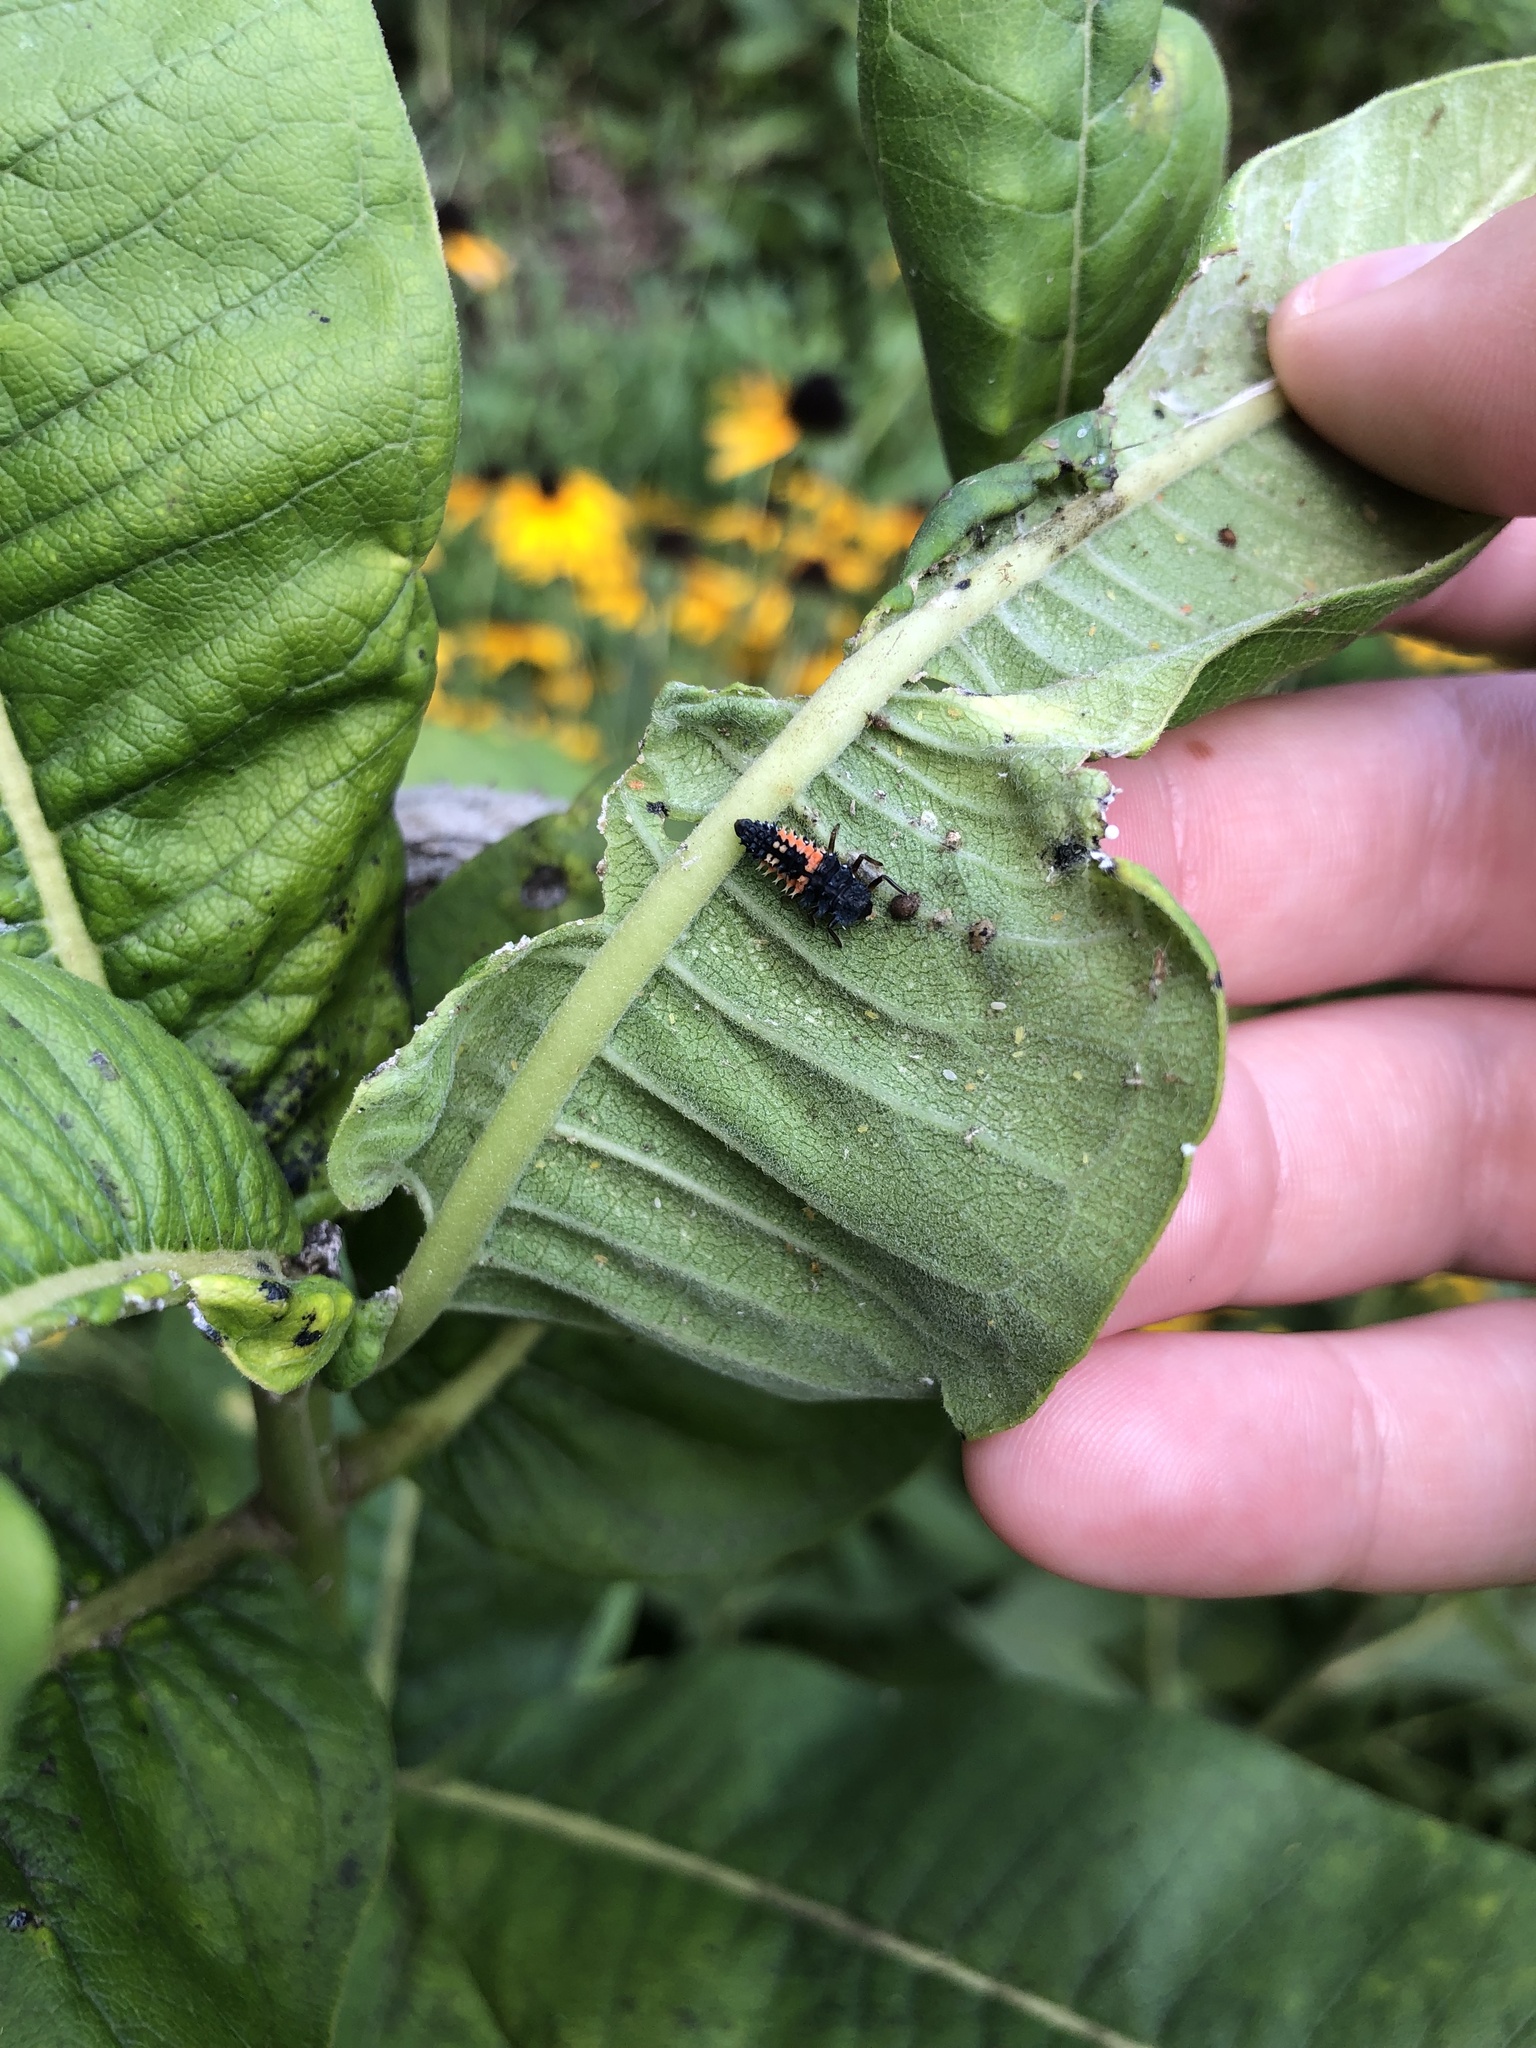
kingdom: Animalia
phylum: Arthropoda
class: Insecta
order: Coleoptera
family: Coccinellidae
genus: Harmonia
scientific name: Harmonia axyridis
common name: Harlequin ladybird
